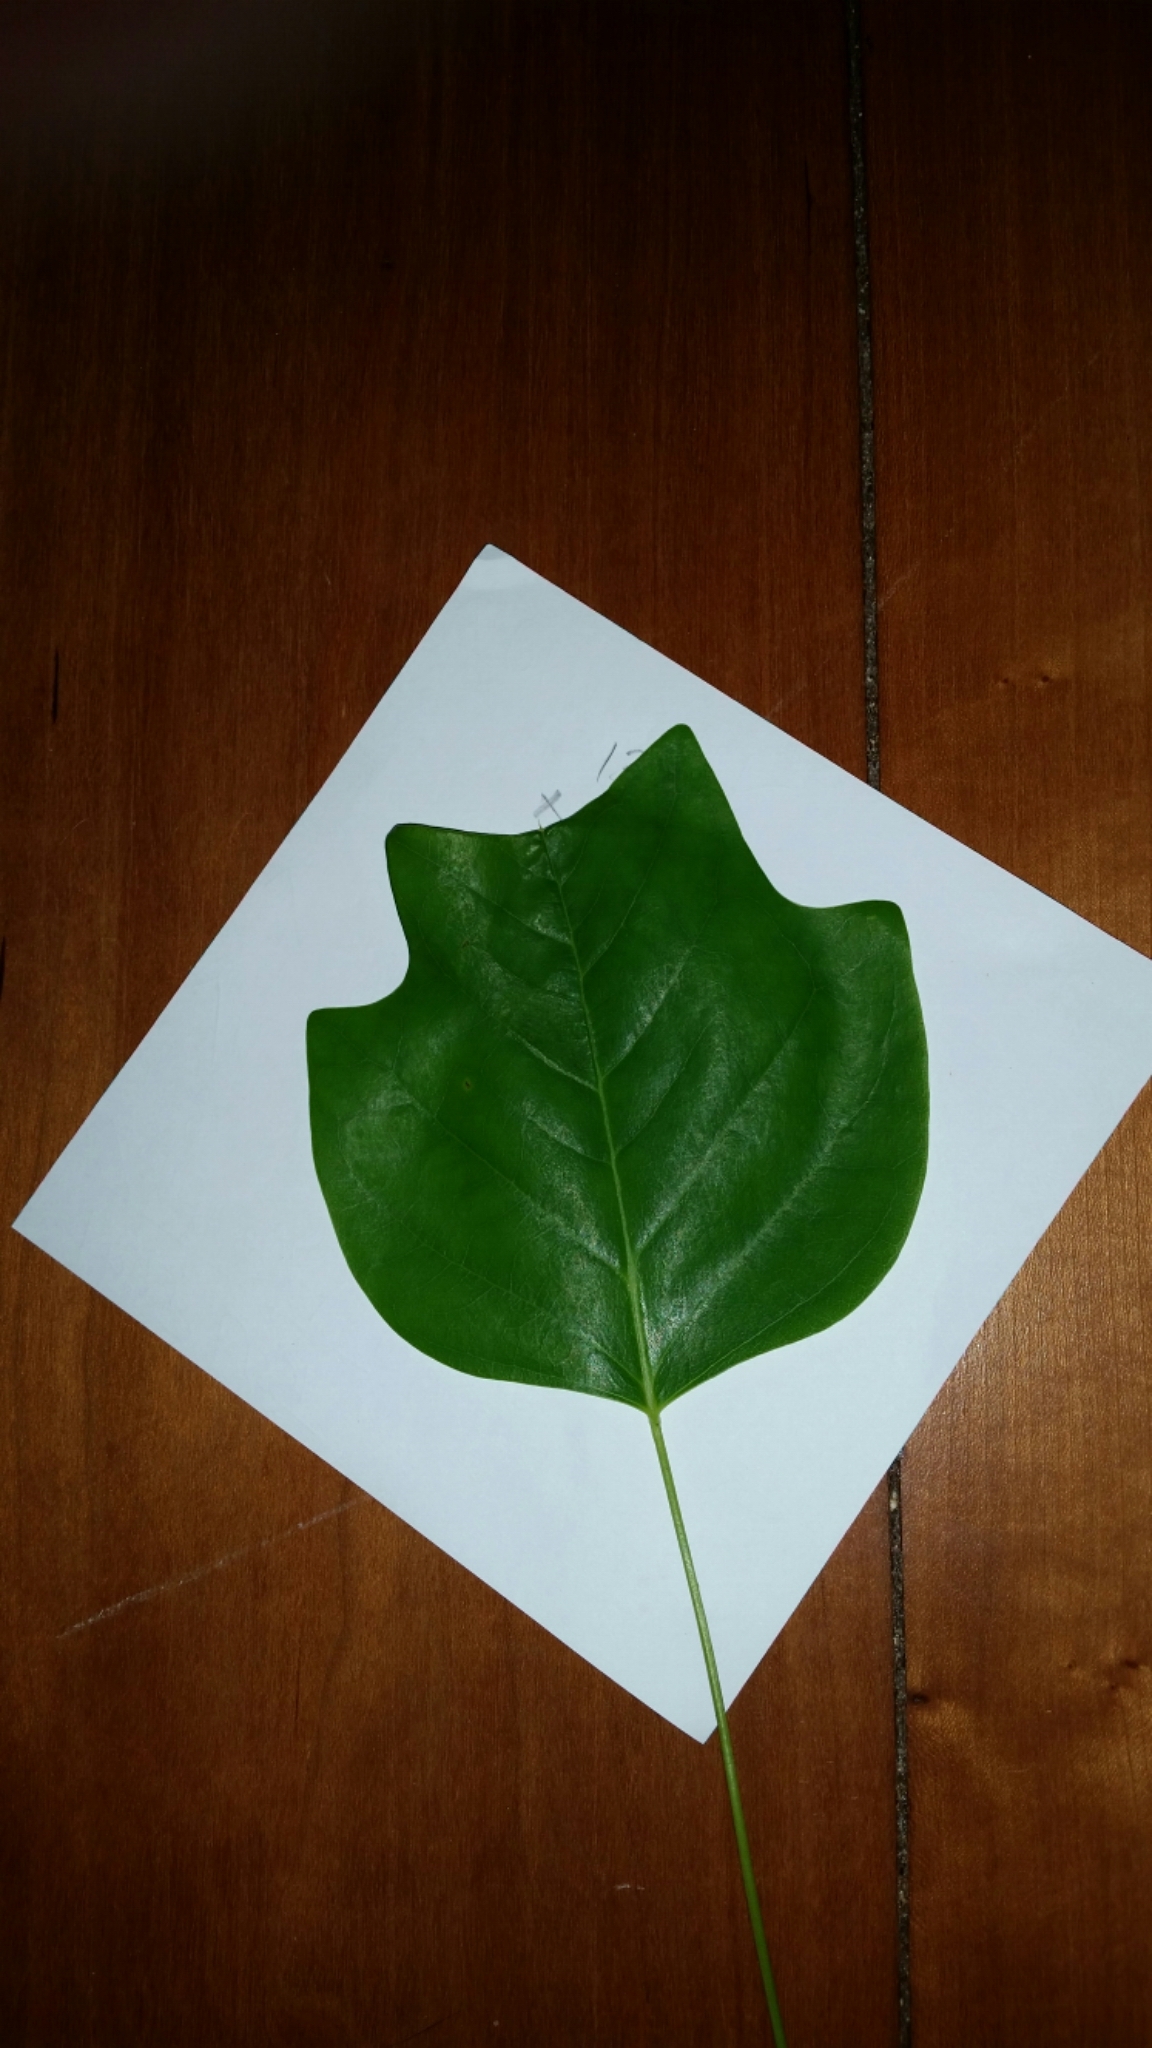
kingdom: Plantae
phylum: Tracheophyta
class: Magnoliopsida
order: Magnoliales
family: Magnoliaceae
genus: Liriodendron
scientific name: Liriodendron tulipifera
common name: Tulip tree
